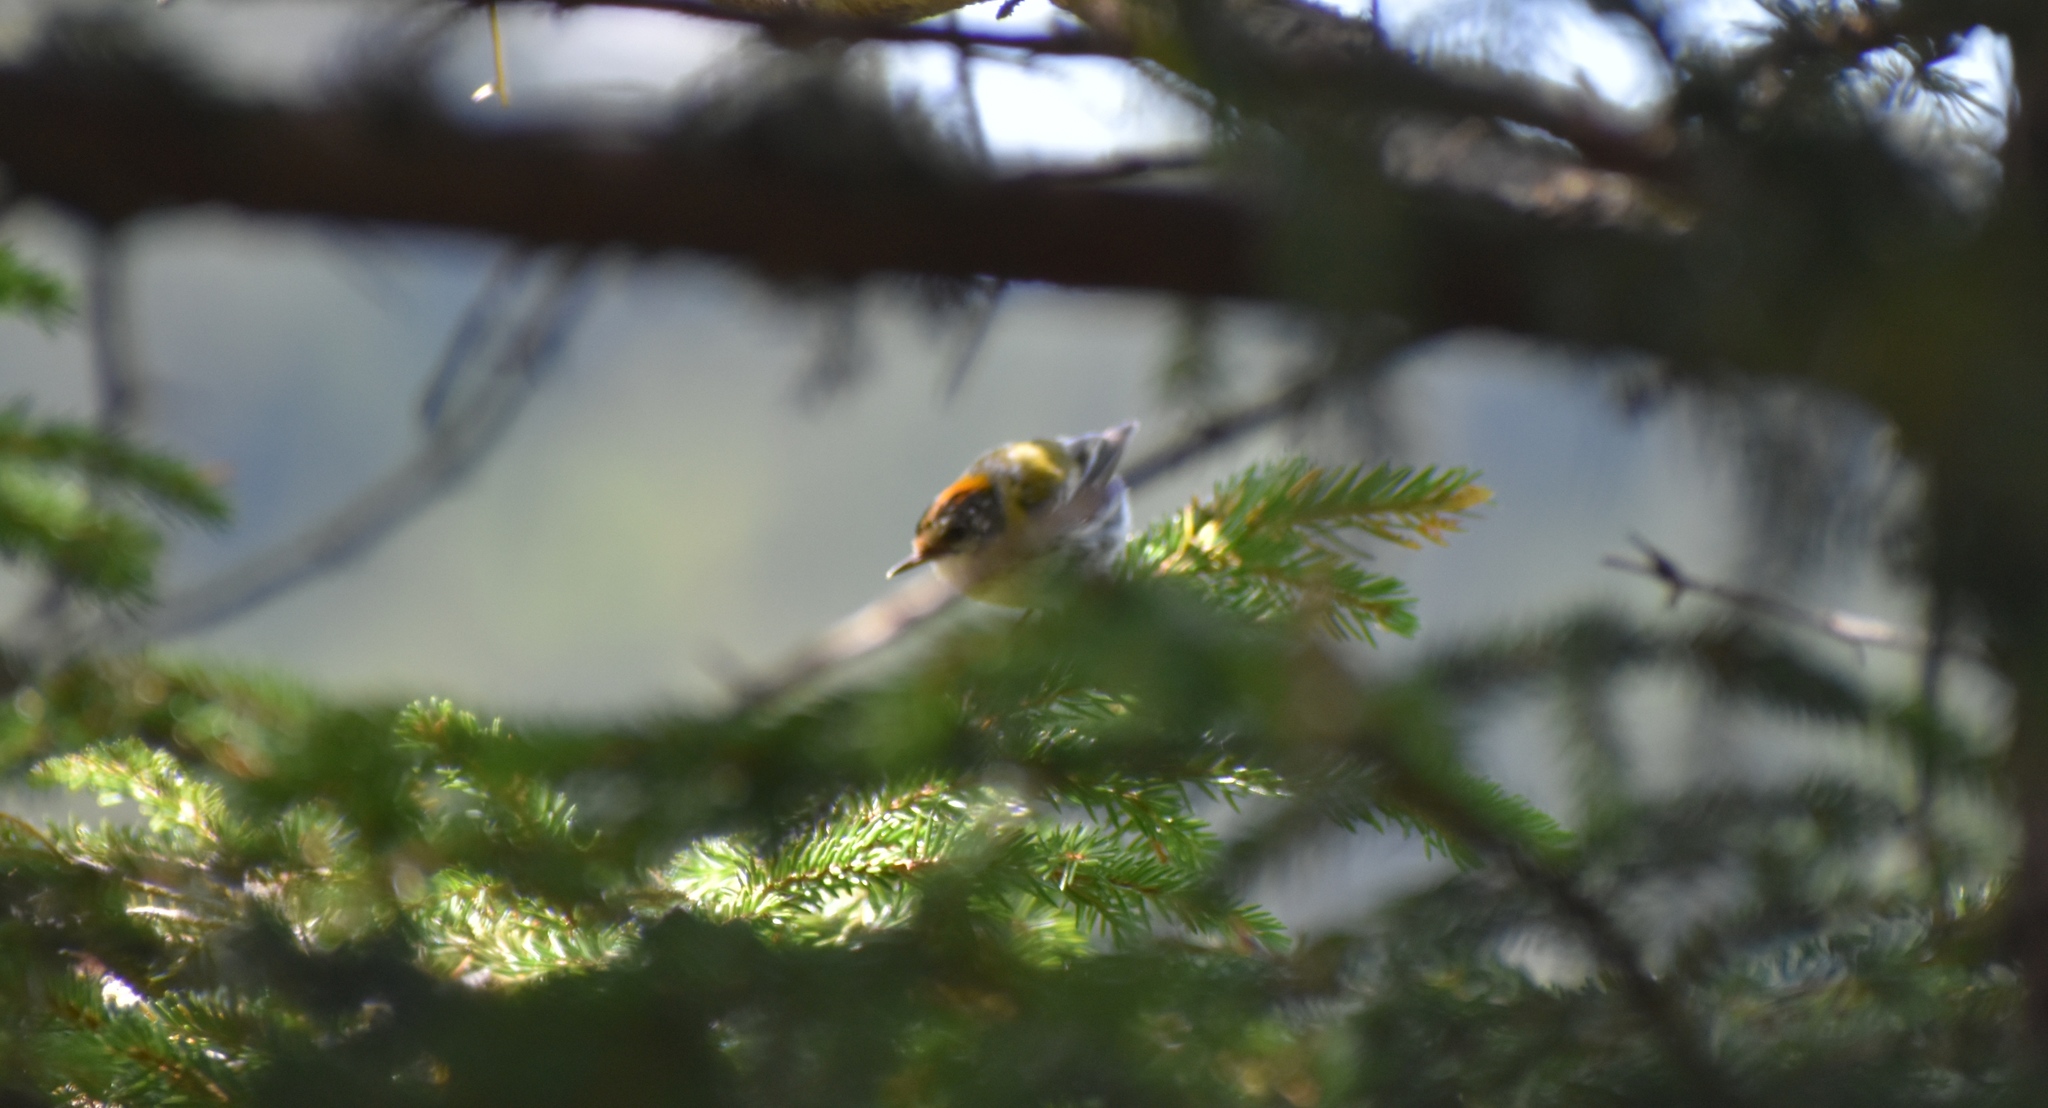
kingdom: Animalia
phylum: Chordata
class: Aves
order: Passeriformes
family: Regulidae
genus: Regulus
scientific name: Regulus ignicapilla
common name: Firecrest
